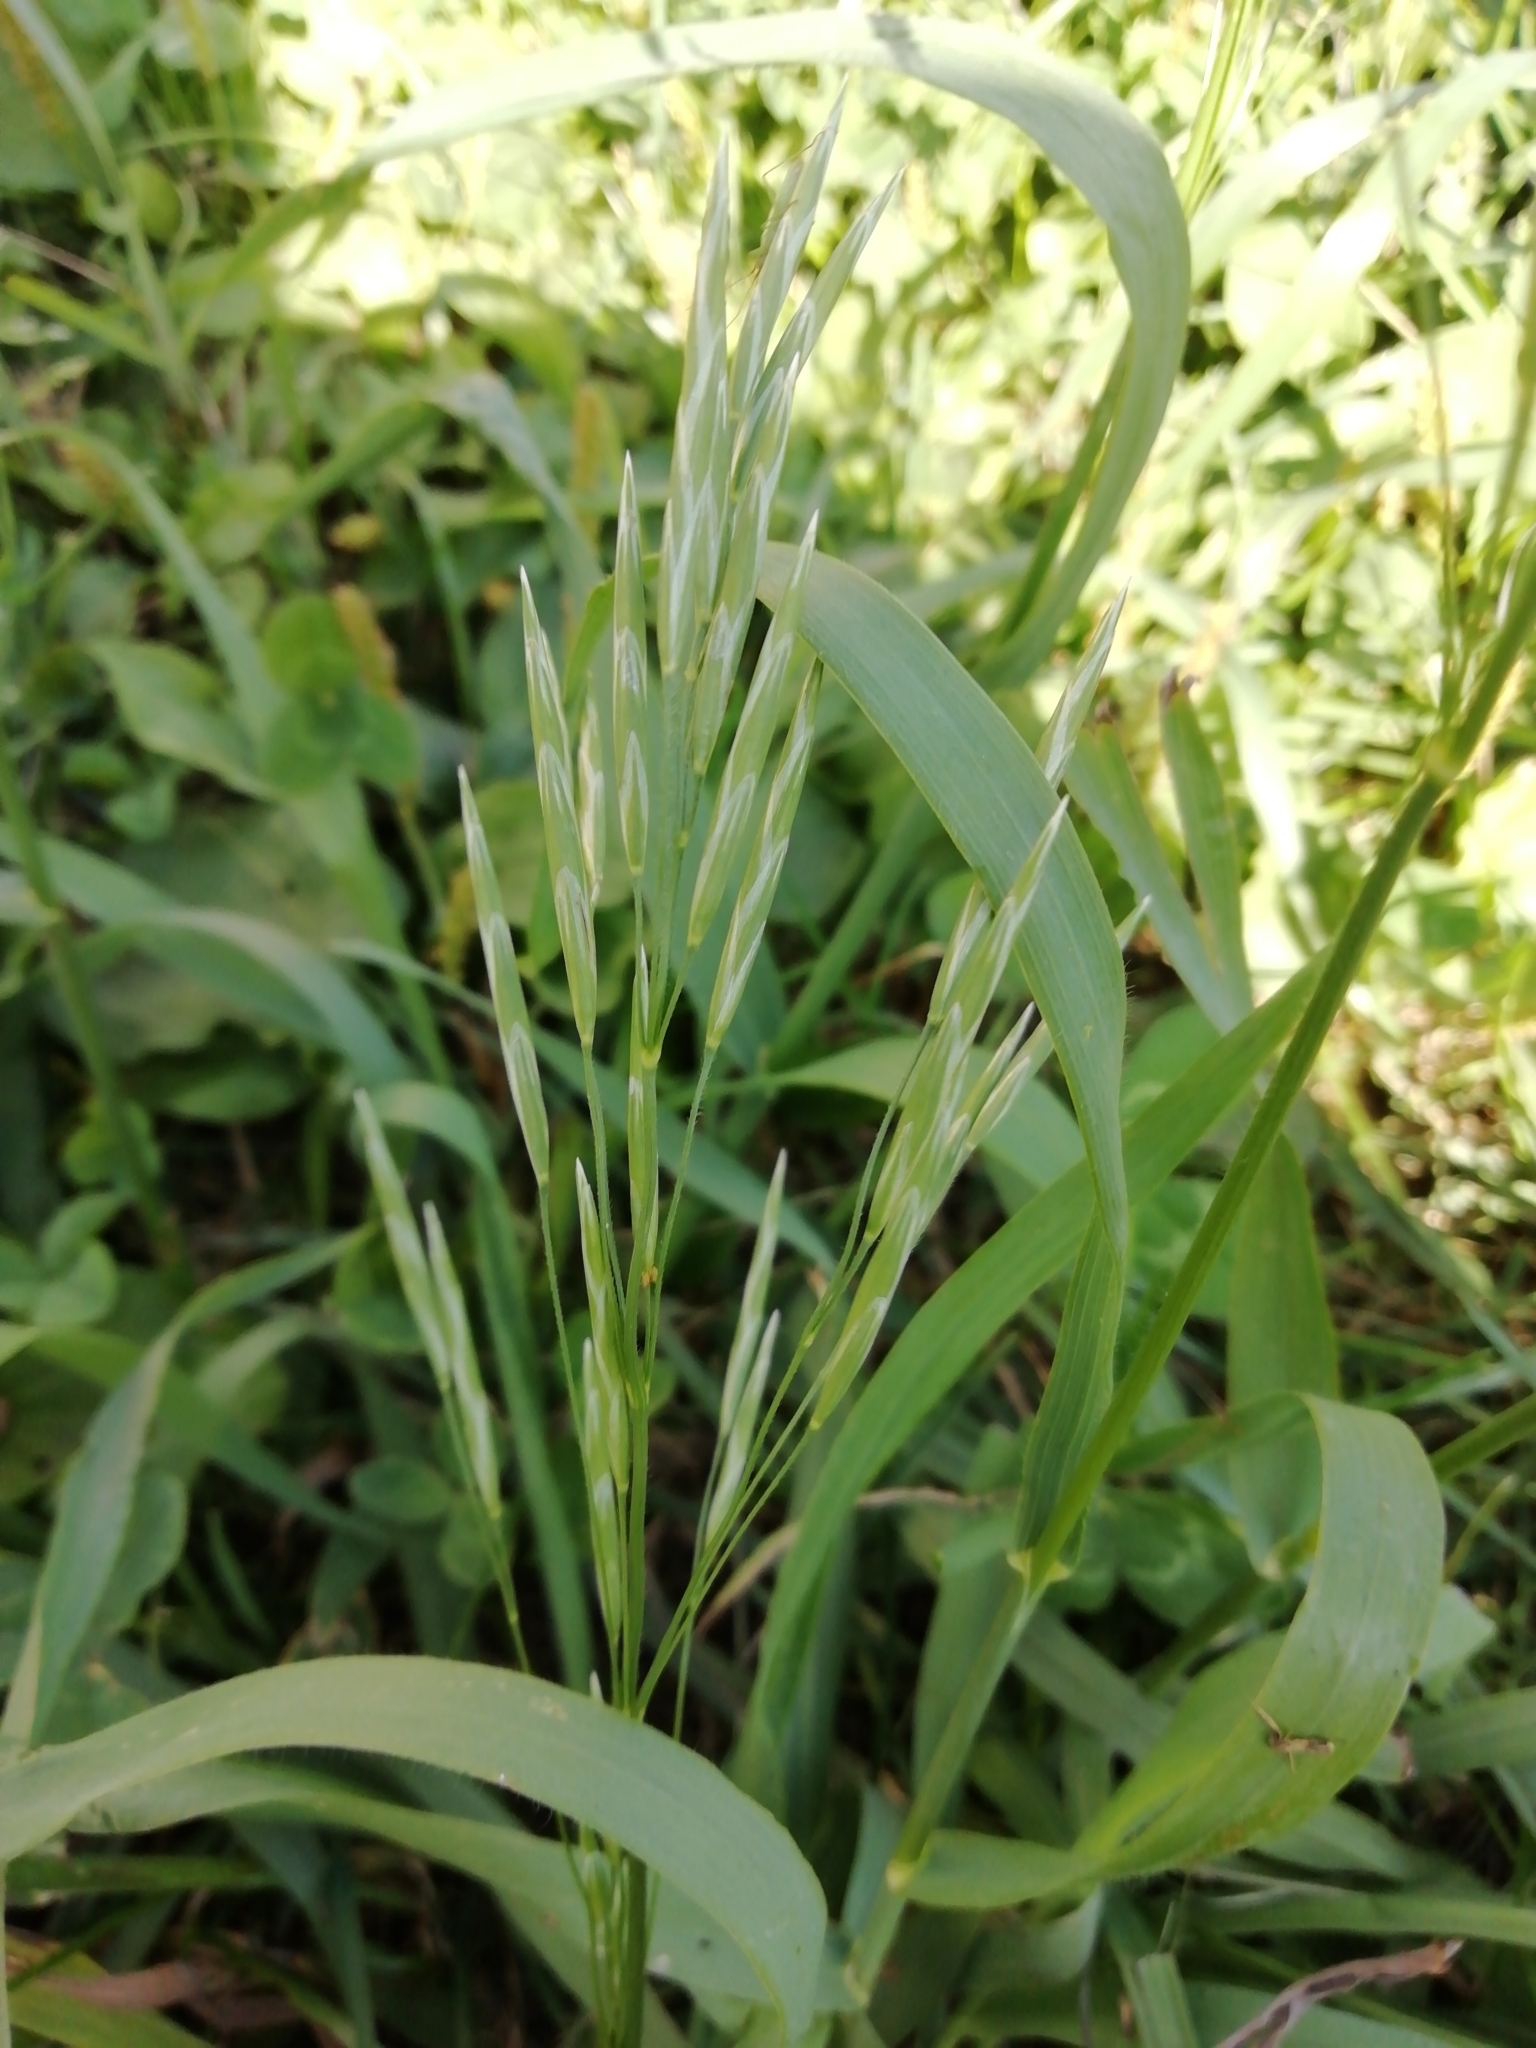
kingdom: Plantae
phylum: Tracheophyta
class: Liliopsida
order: Poales
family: Poaceae
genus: Bromus
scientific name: Bromus inermis
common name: Smooth brome
